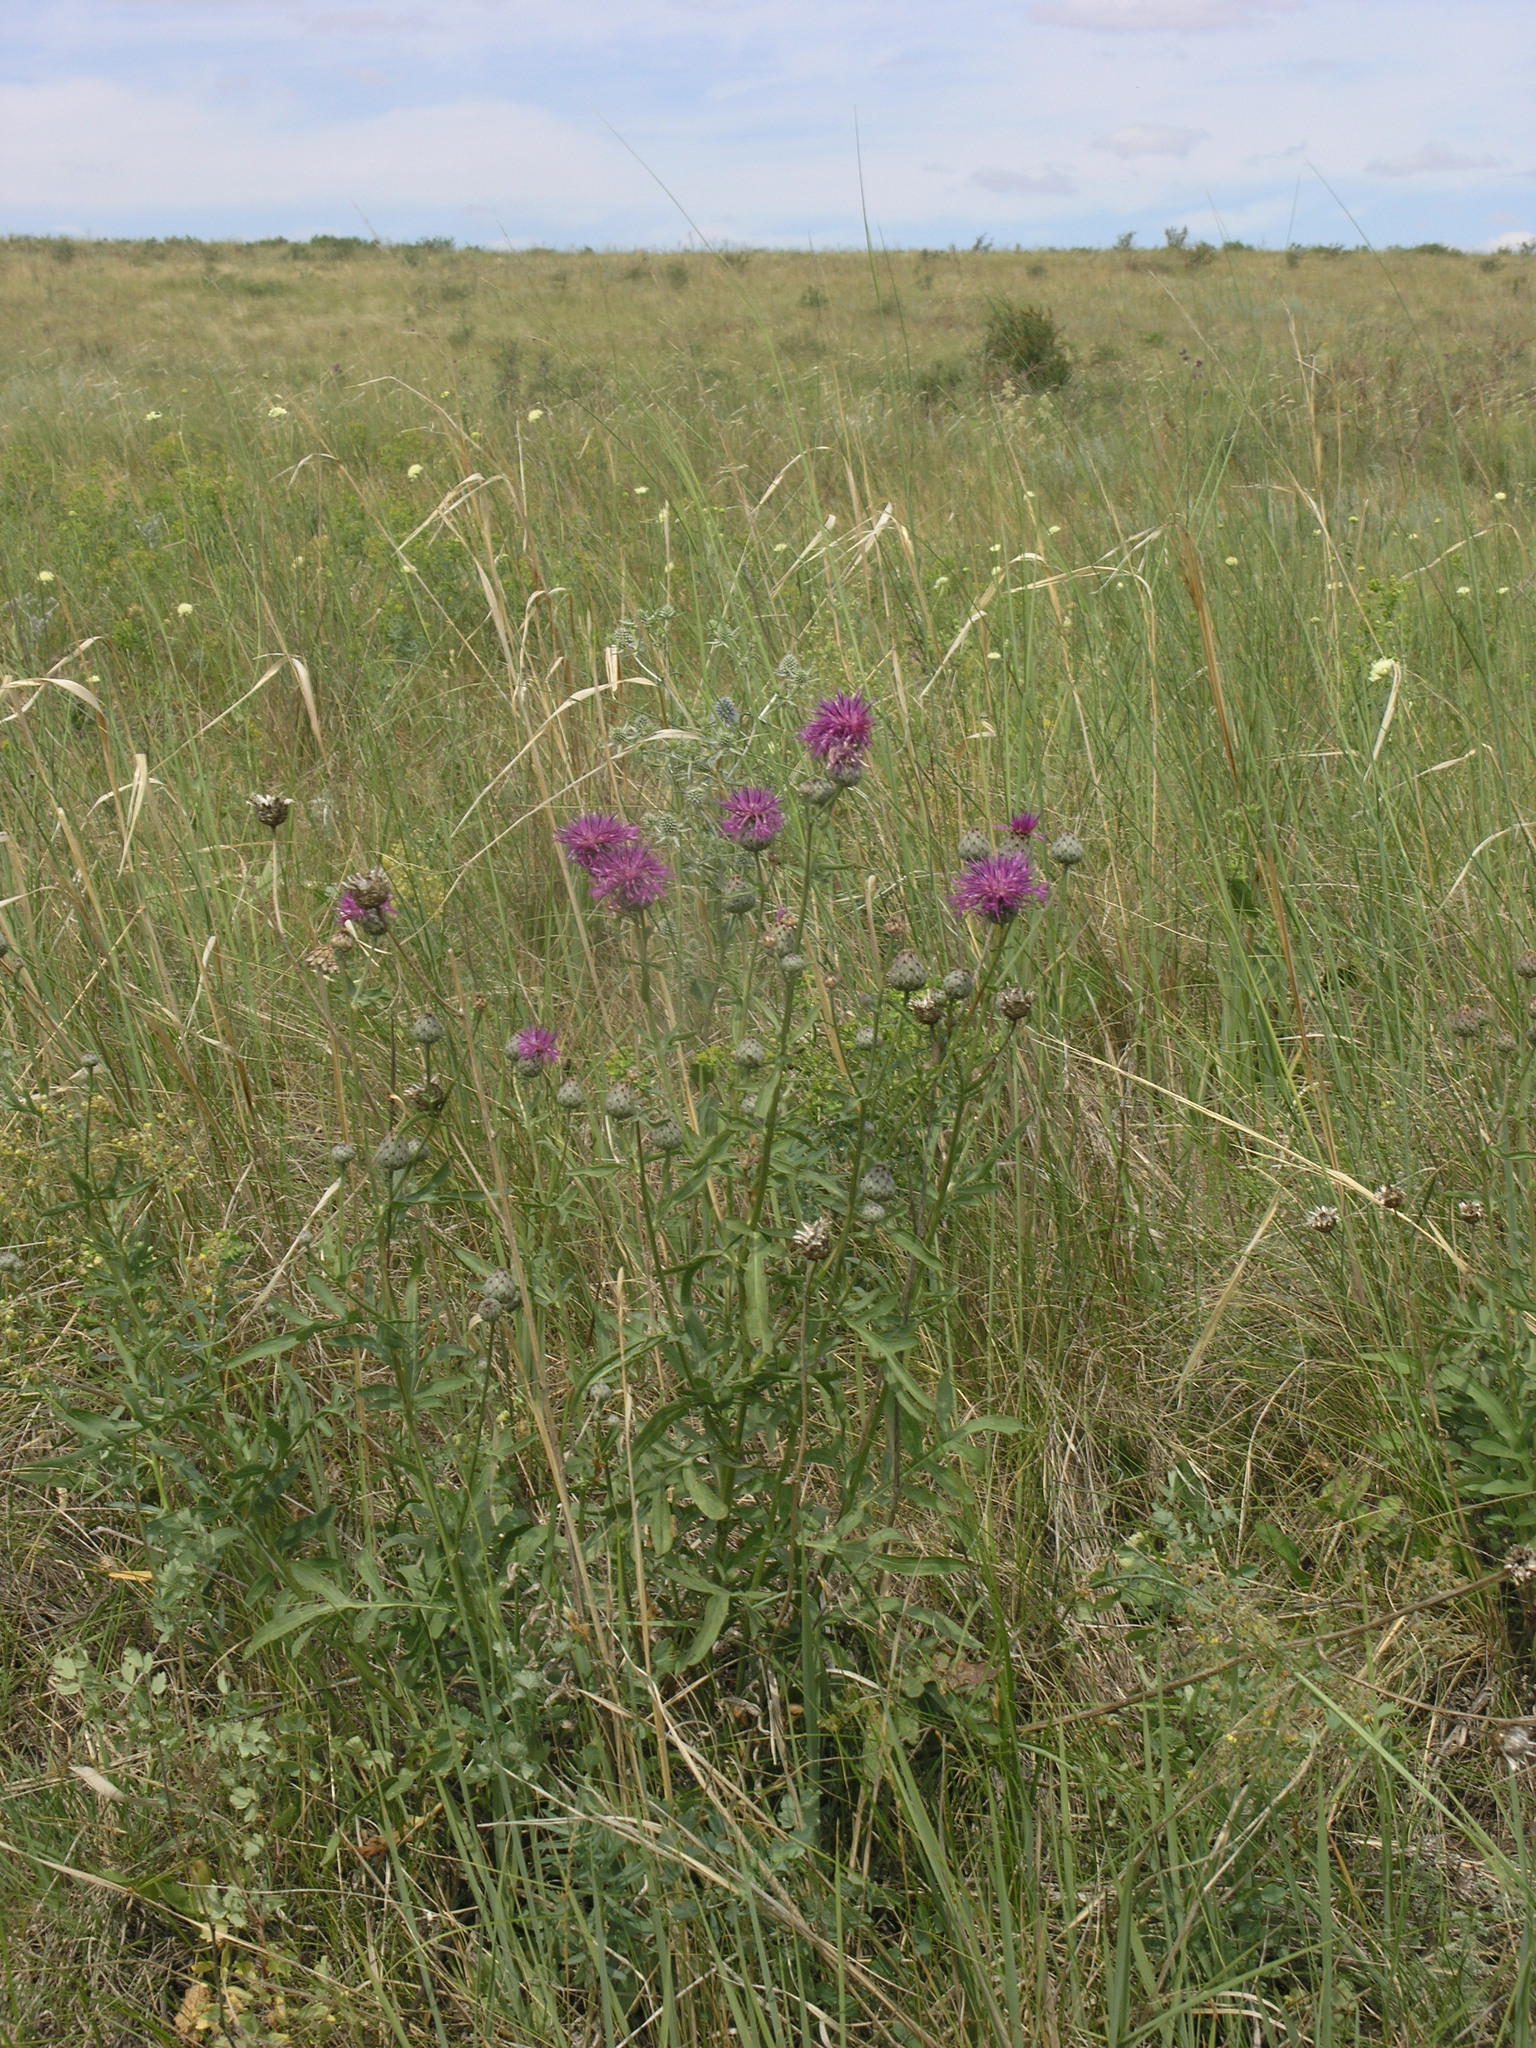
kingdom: Plantae
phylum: Tracheophyta
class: Magnoliopsida
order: Asterales
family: Asteraceae
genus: Centaurea
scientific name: Centaurea scabiosa
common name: Greater knapweed
